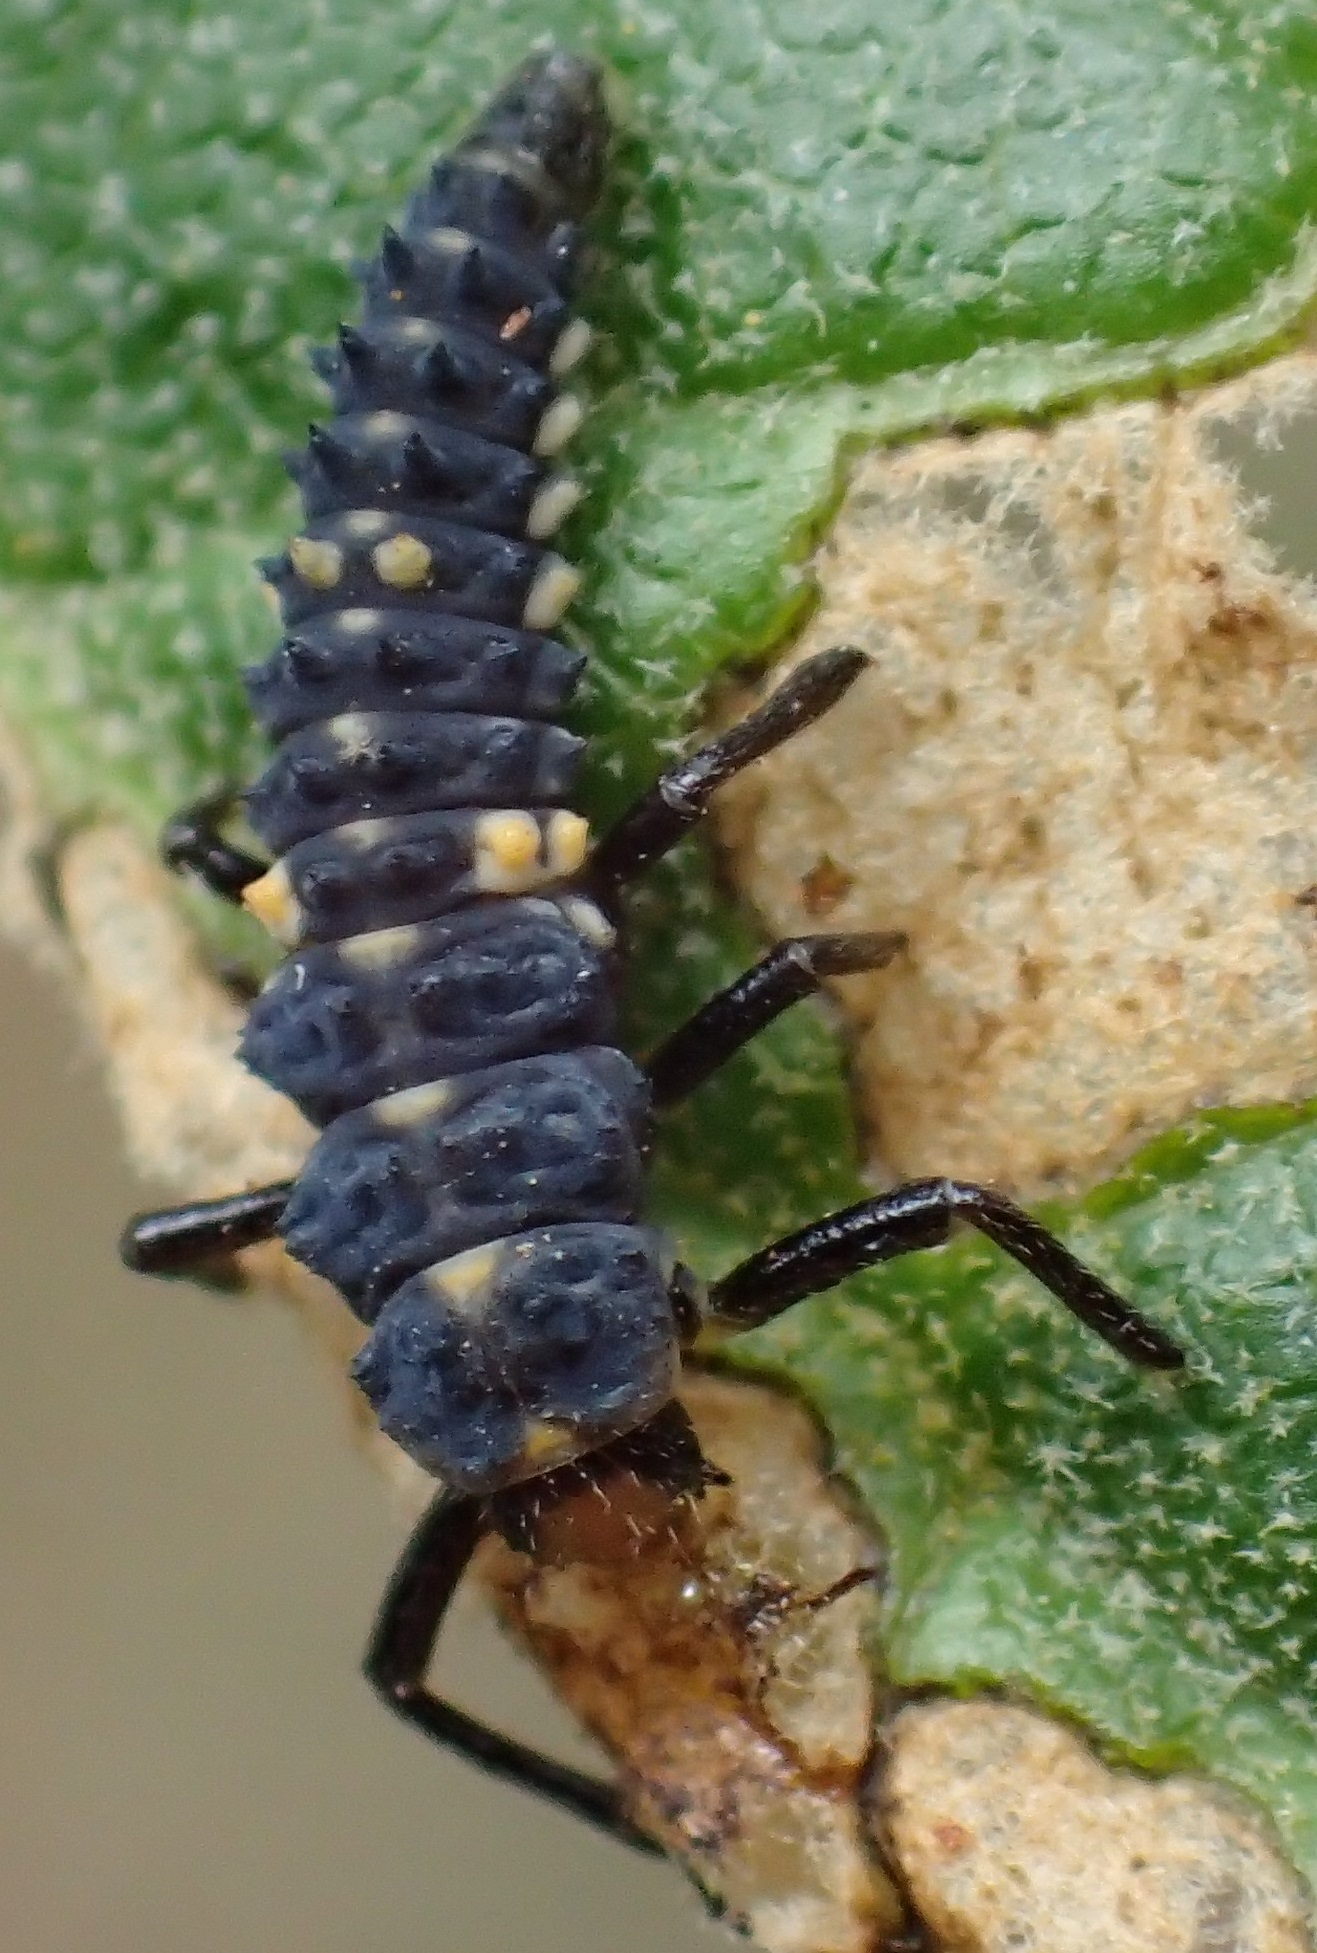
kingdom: Animalia
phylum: Arthropoda
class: Insecta
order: Coleoptera
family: Coccinellidae
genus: Cleobora
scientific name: Cleobora
